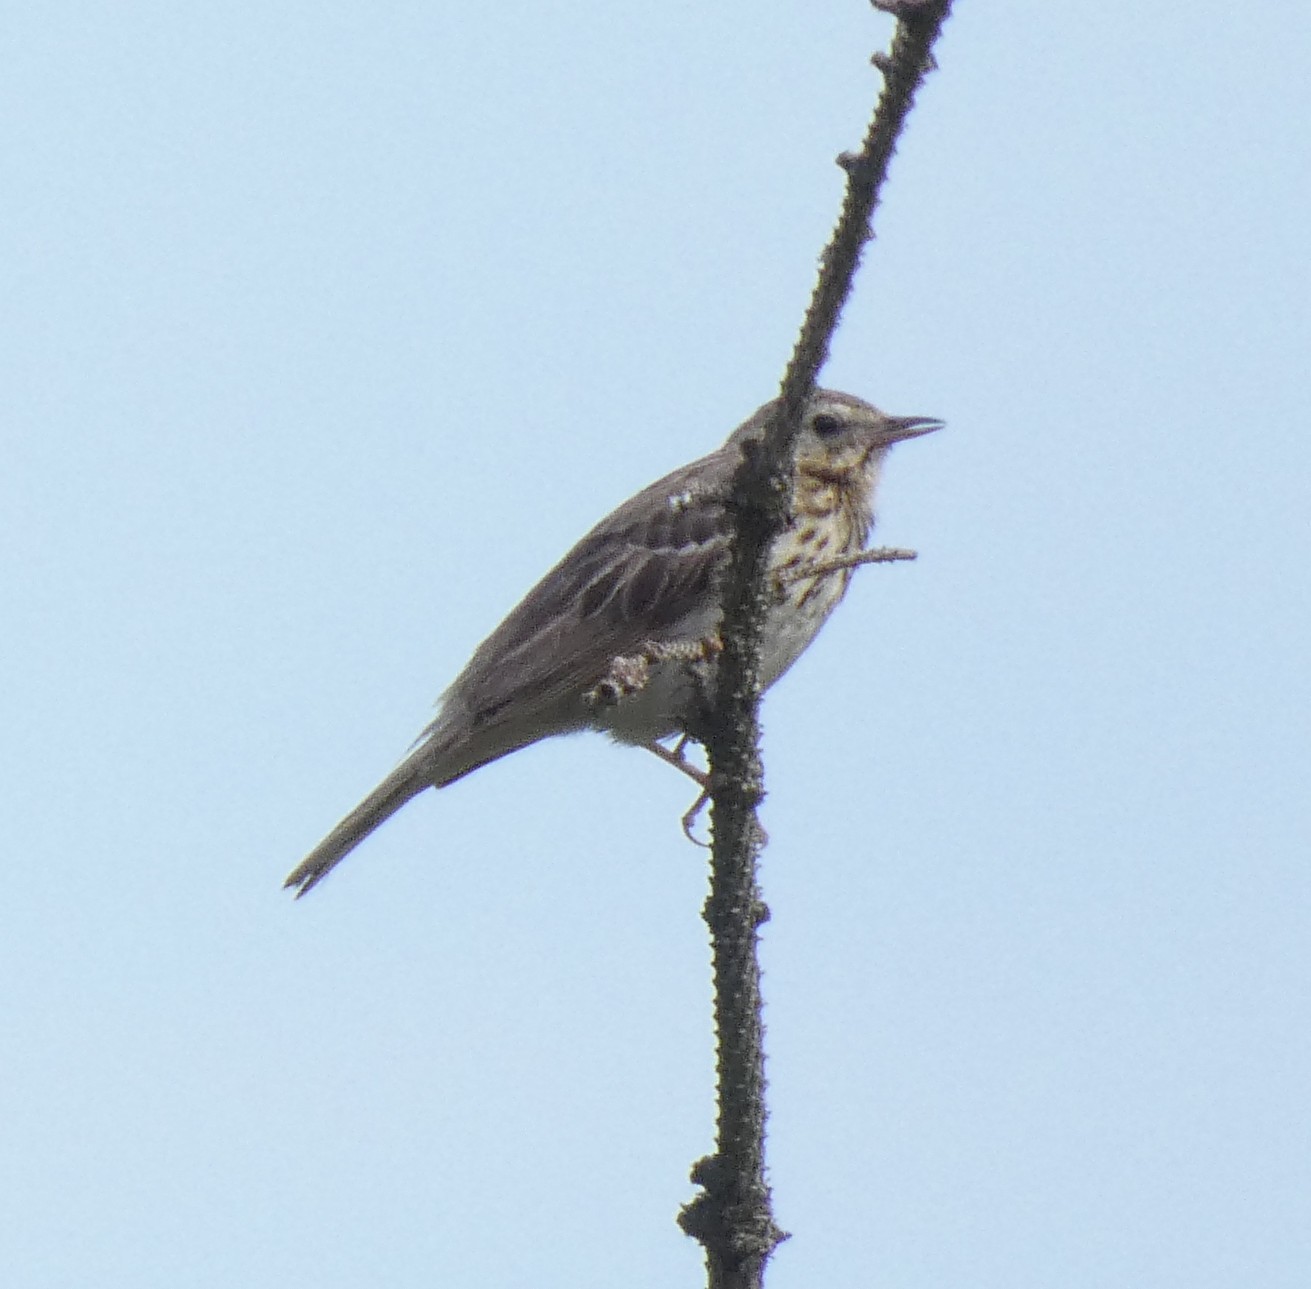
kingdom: Animalia
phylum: Chordata
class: Aves
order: Passeriformes
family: Motacillidae
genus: Anthus
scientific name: Anthus trivialis
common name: Tree pipit
